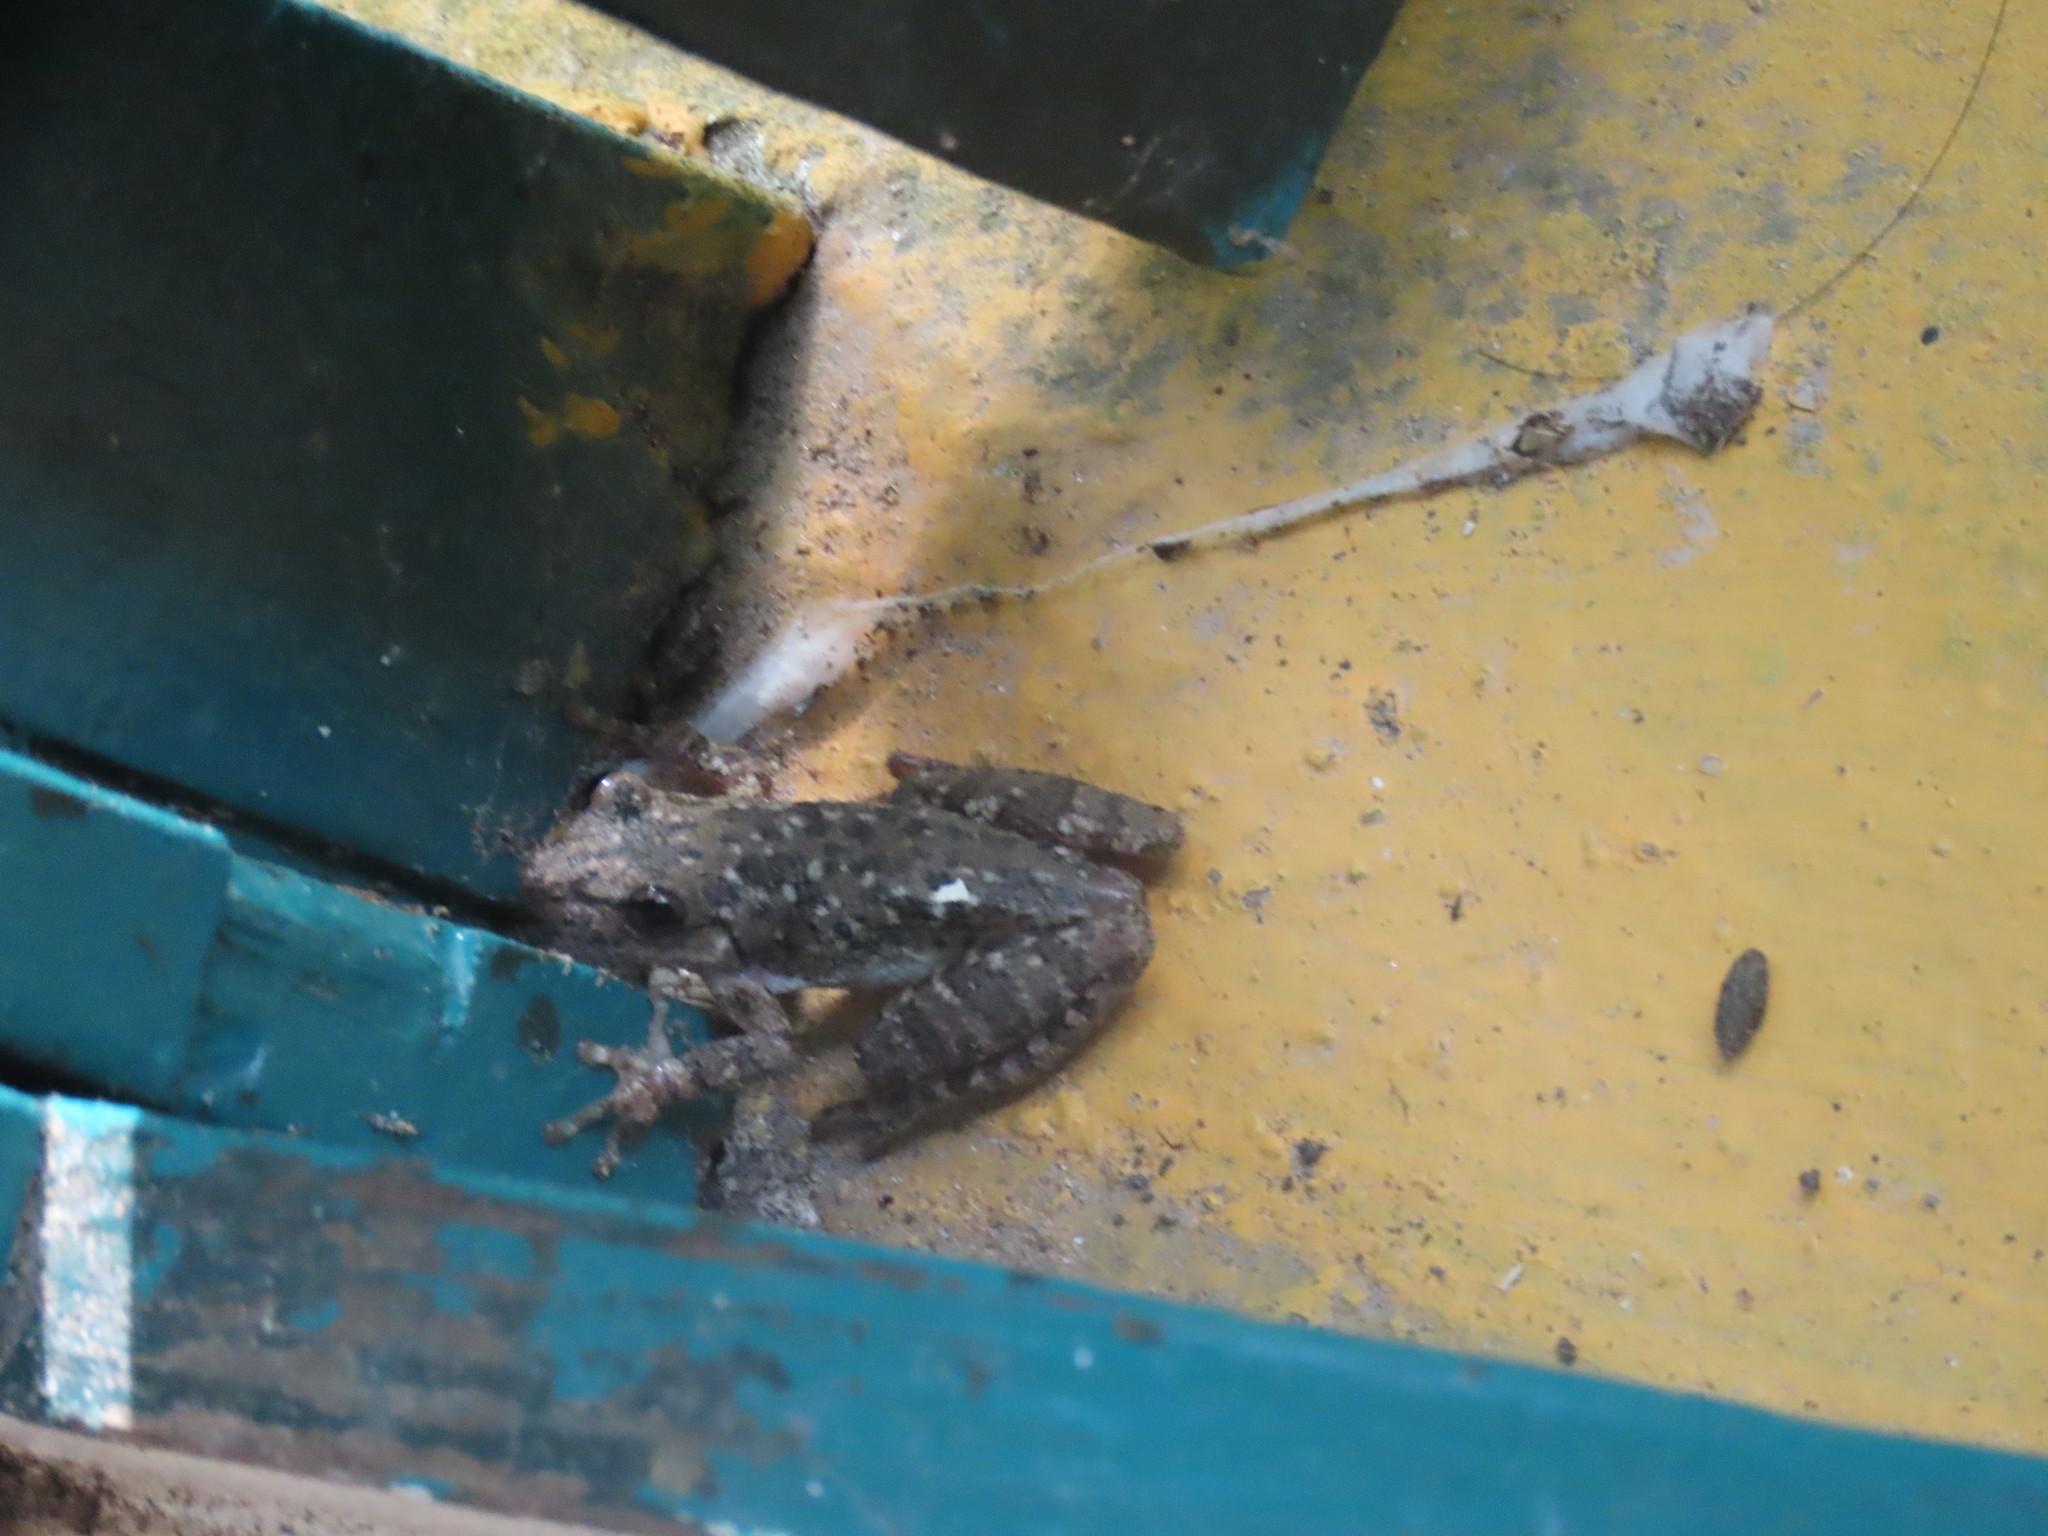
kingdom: Animalia
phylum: Chordata
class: Amphibia
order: Anura
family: Hylidae
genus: Scinax
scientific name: Scinax granulatus
